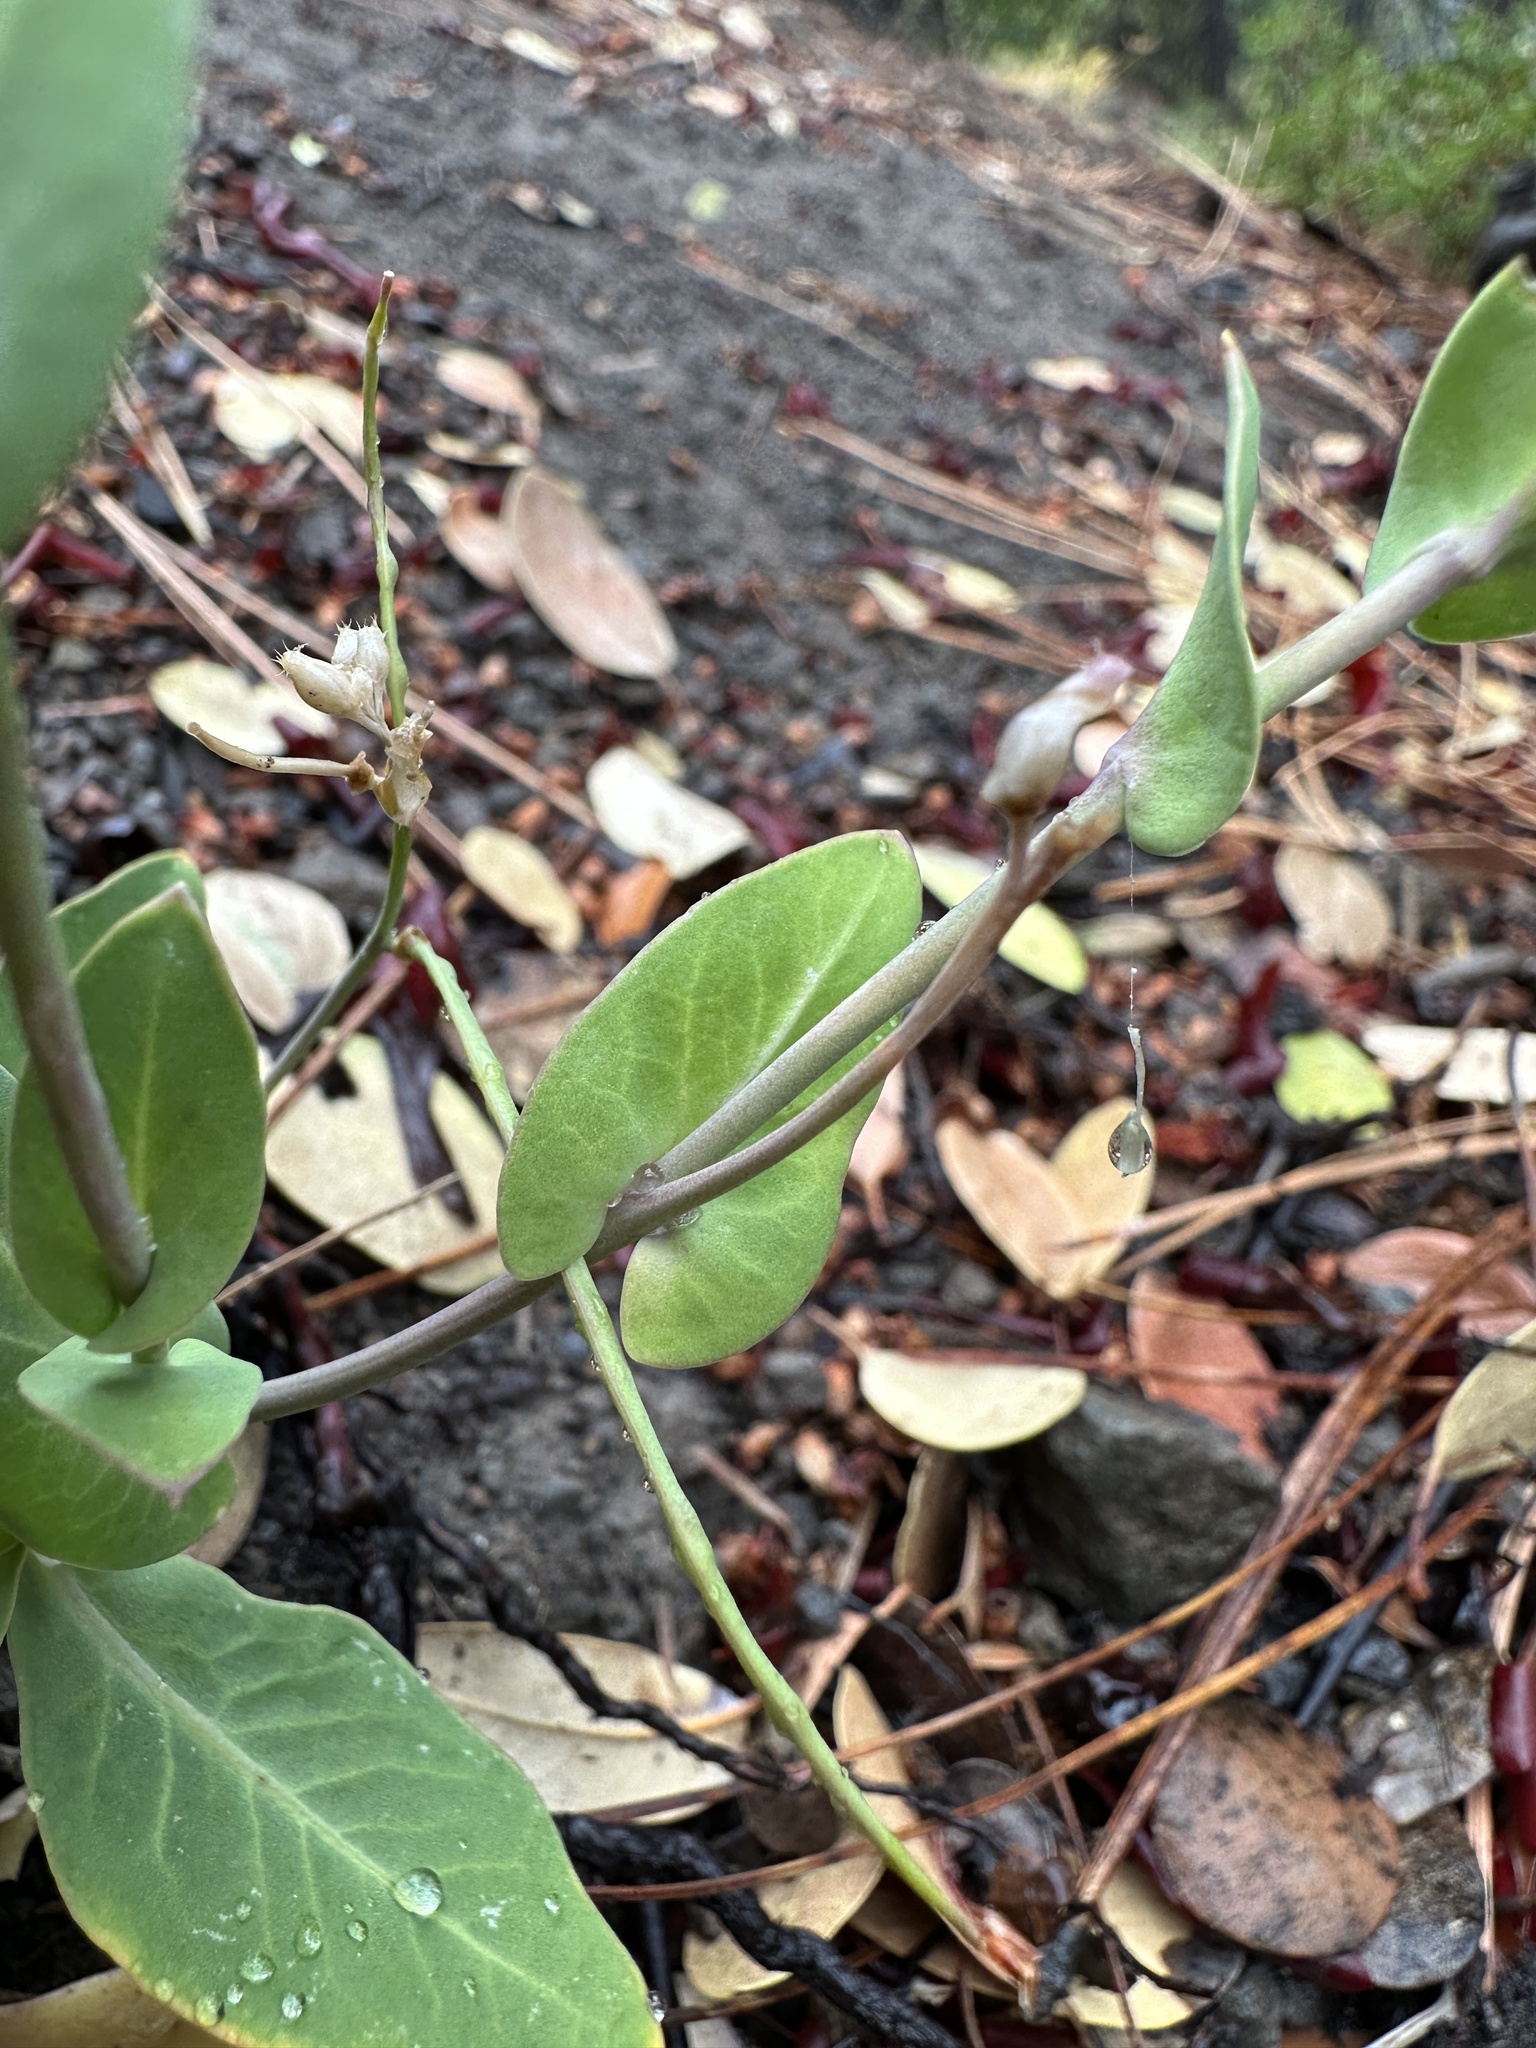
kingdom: Plantae
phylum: Tracheophyta
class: Magnoliopsida
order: Brassicales
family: Brassicaceae
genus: Streptanthus
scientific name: Streptanthus longisiliquus
